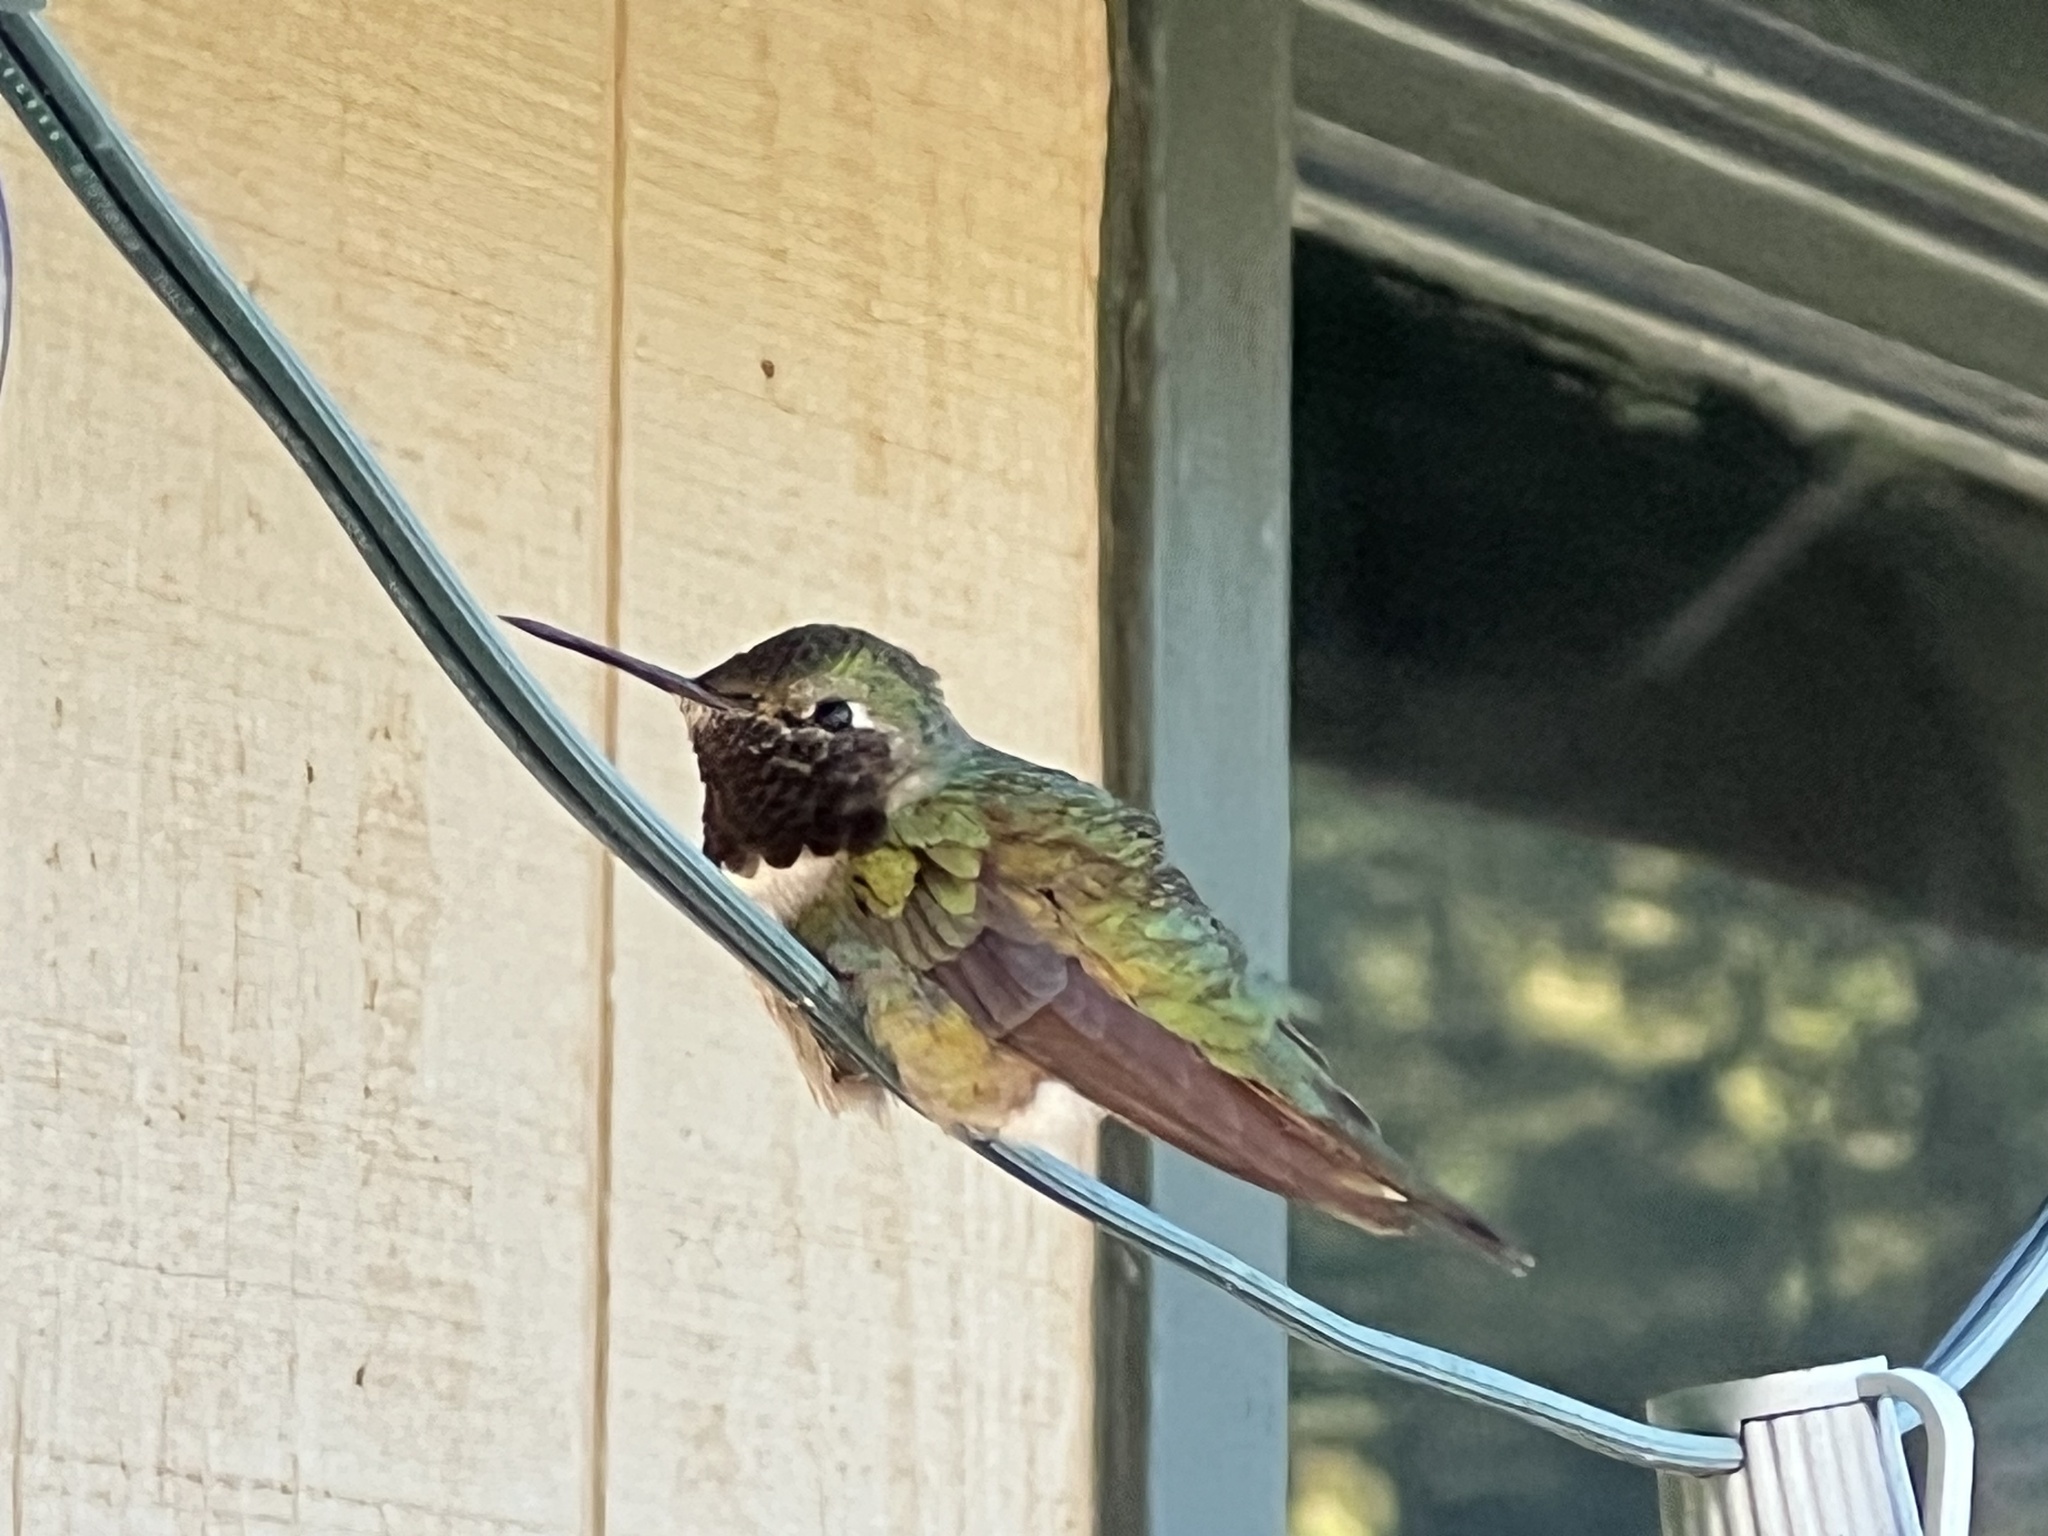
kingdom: Animalia
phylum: Chordata
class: Aves
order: Apodiformes
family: Trochilidae
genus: Selasphorus
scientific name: Selasphorus platycercus
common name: Broad-tailed hummingbird
